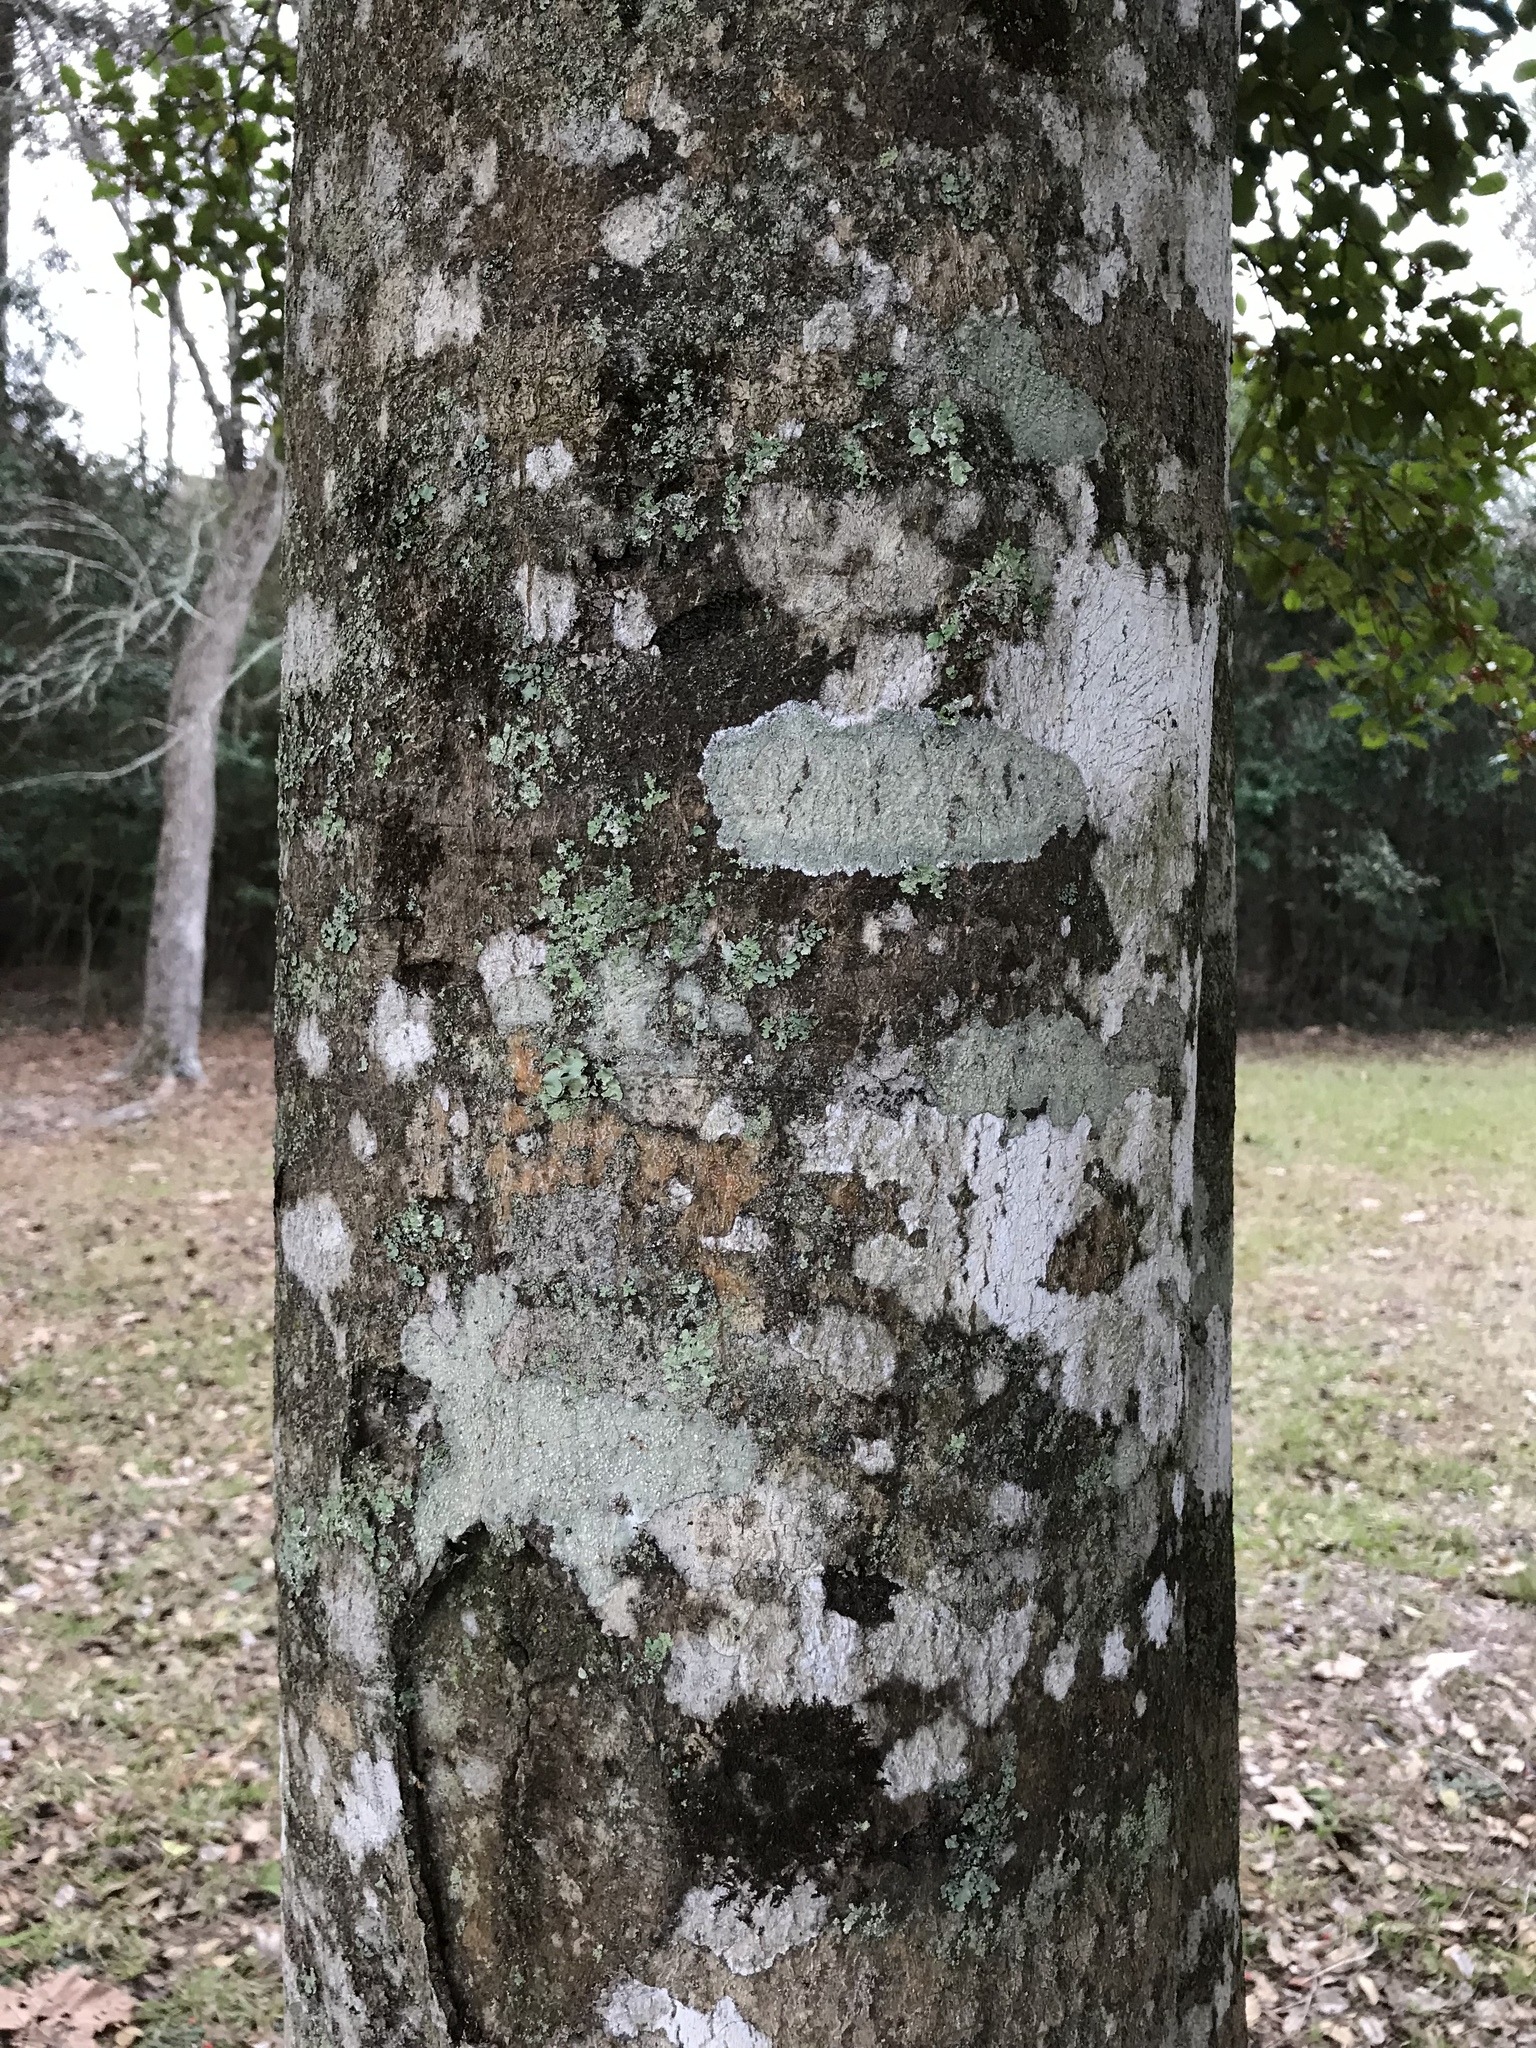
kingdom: Plantae
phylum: Tracheophyta
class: Magnoliopsida
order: Aquifoliales
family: Aquifoliaceae
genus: Ilex
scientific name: Ilex opaca
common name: American holly
